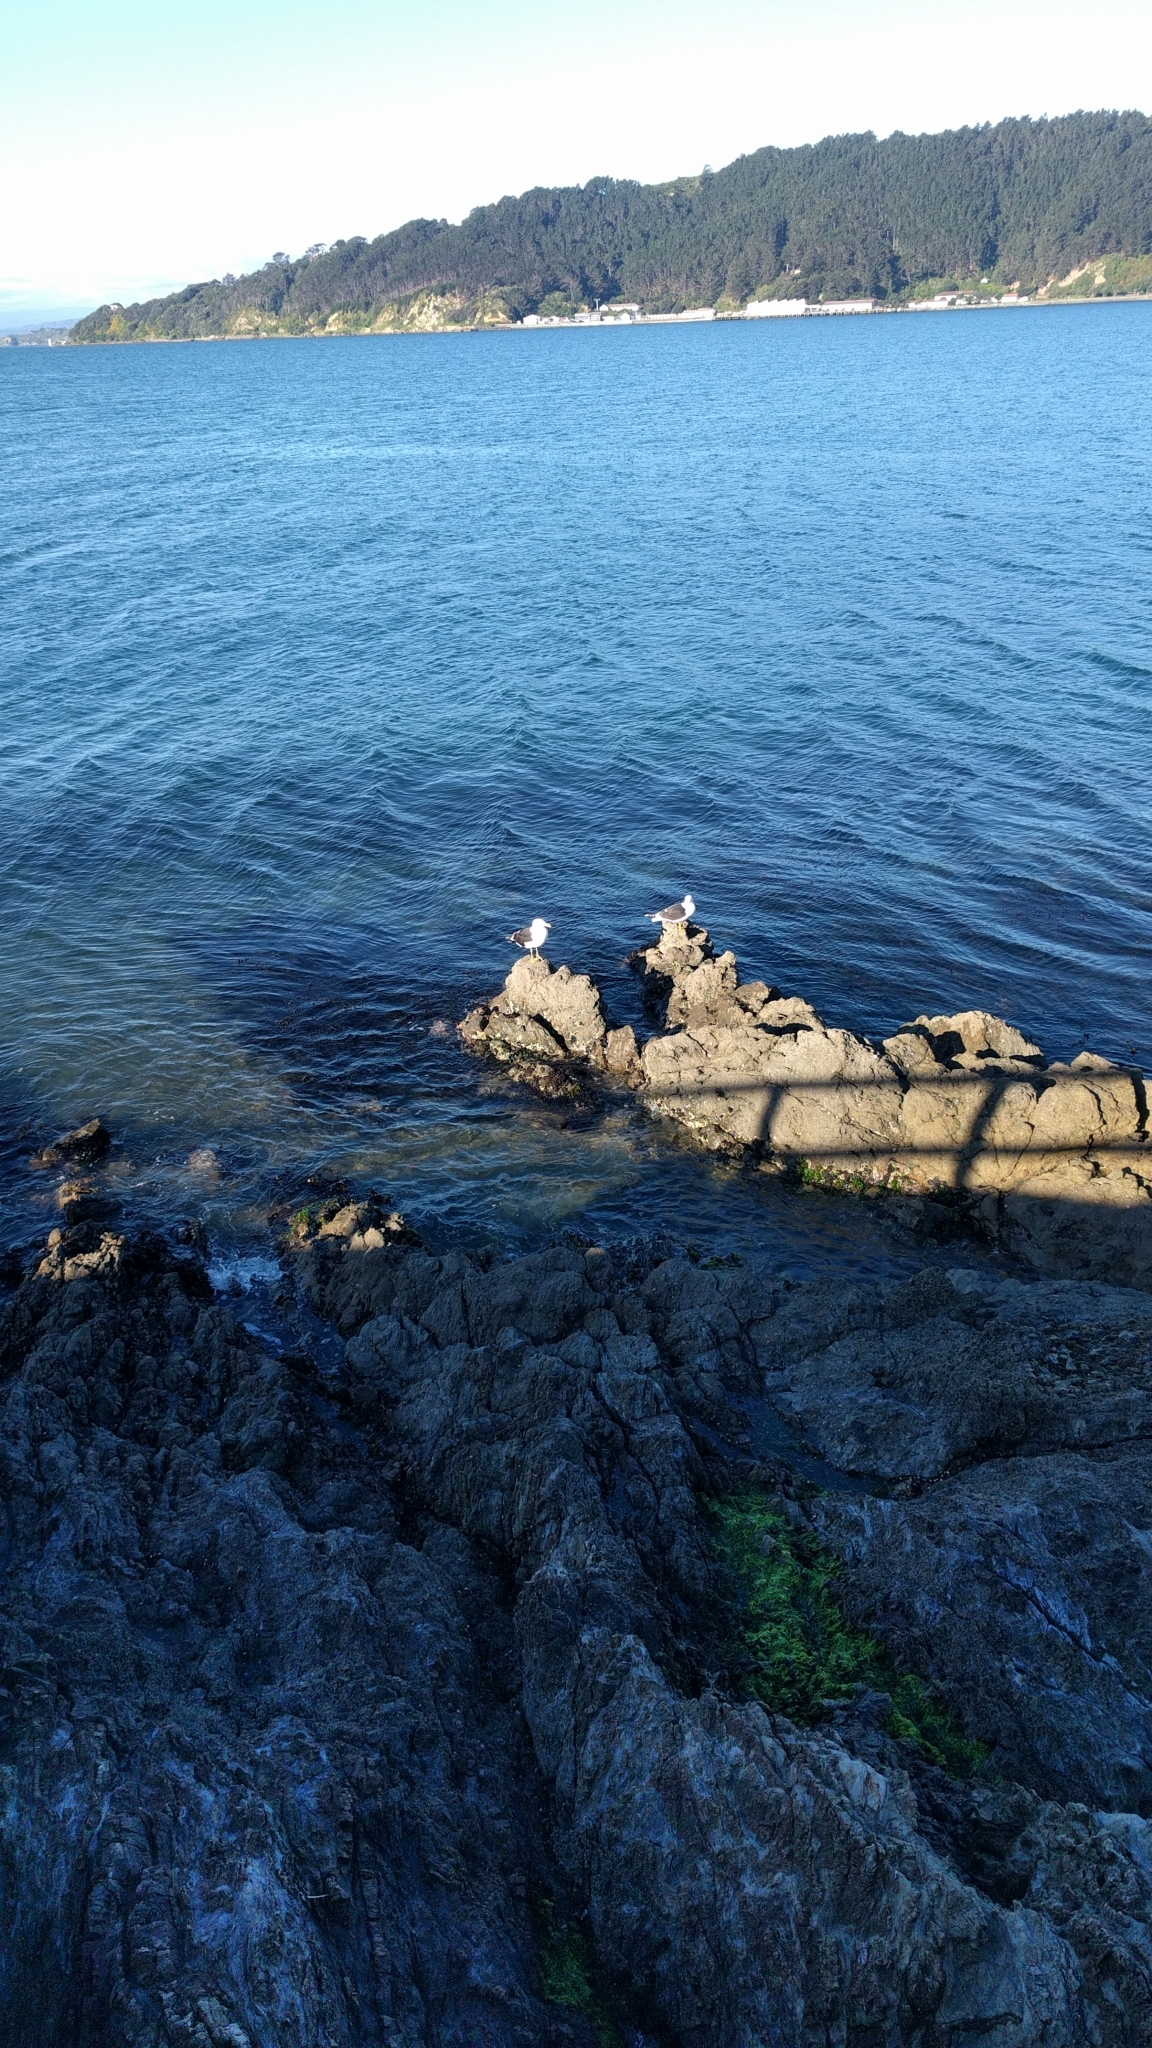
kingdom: Animalia
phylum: Chordata
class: Aves
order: Charadriiformes
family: Laridae
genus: Larus
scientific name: Larus dominicanus
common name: Kelp gull
